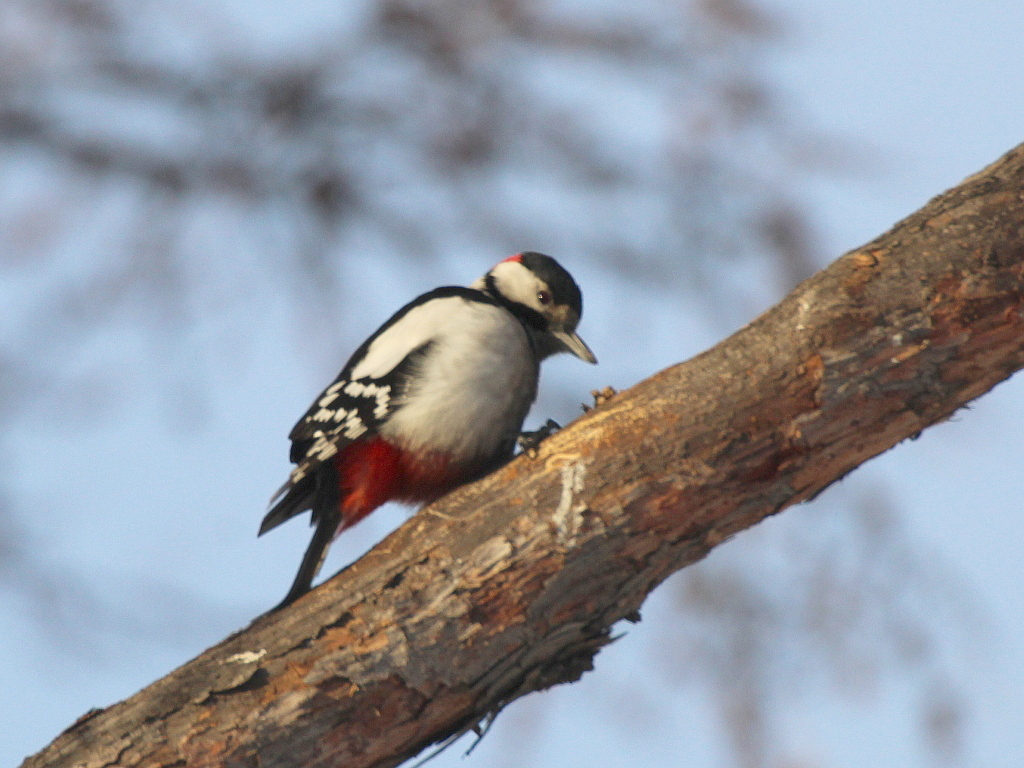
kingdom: Animalia
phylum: Chordata
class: Aves
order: Piciformes
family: Picidae
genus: Dendrocopos
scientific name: Dendrocopos major
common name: Great spotted woodpecker
